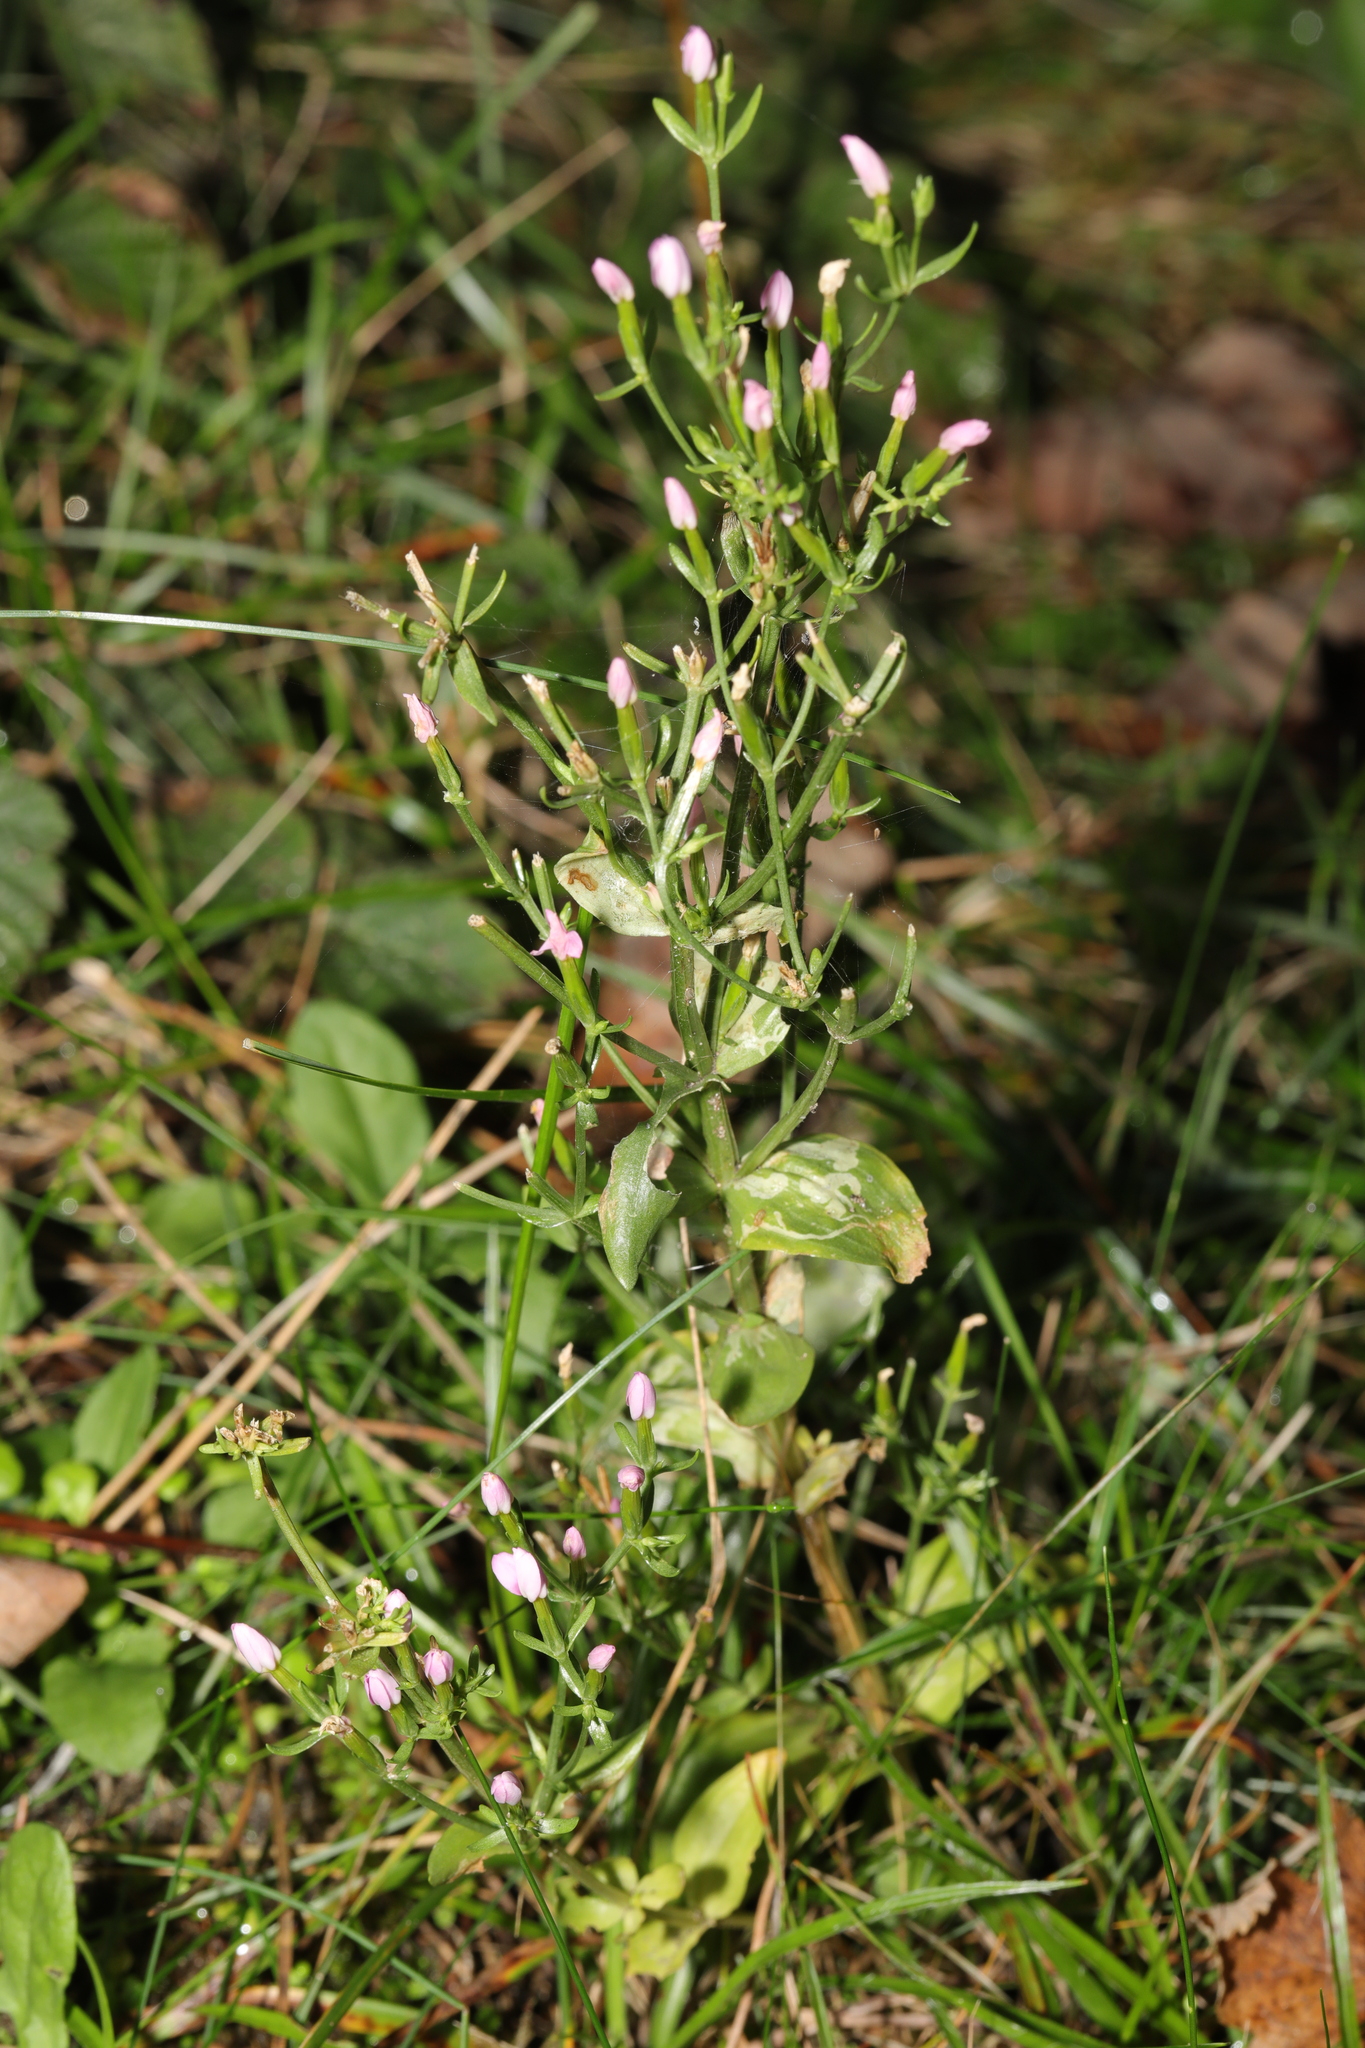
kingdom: Plantae
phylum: Tracheophyta
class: Magnoliopsida
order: Gentianales
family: Gentianaceae
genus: Centaurium
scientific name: Centaurium erythraea
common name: Common centaury
